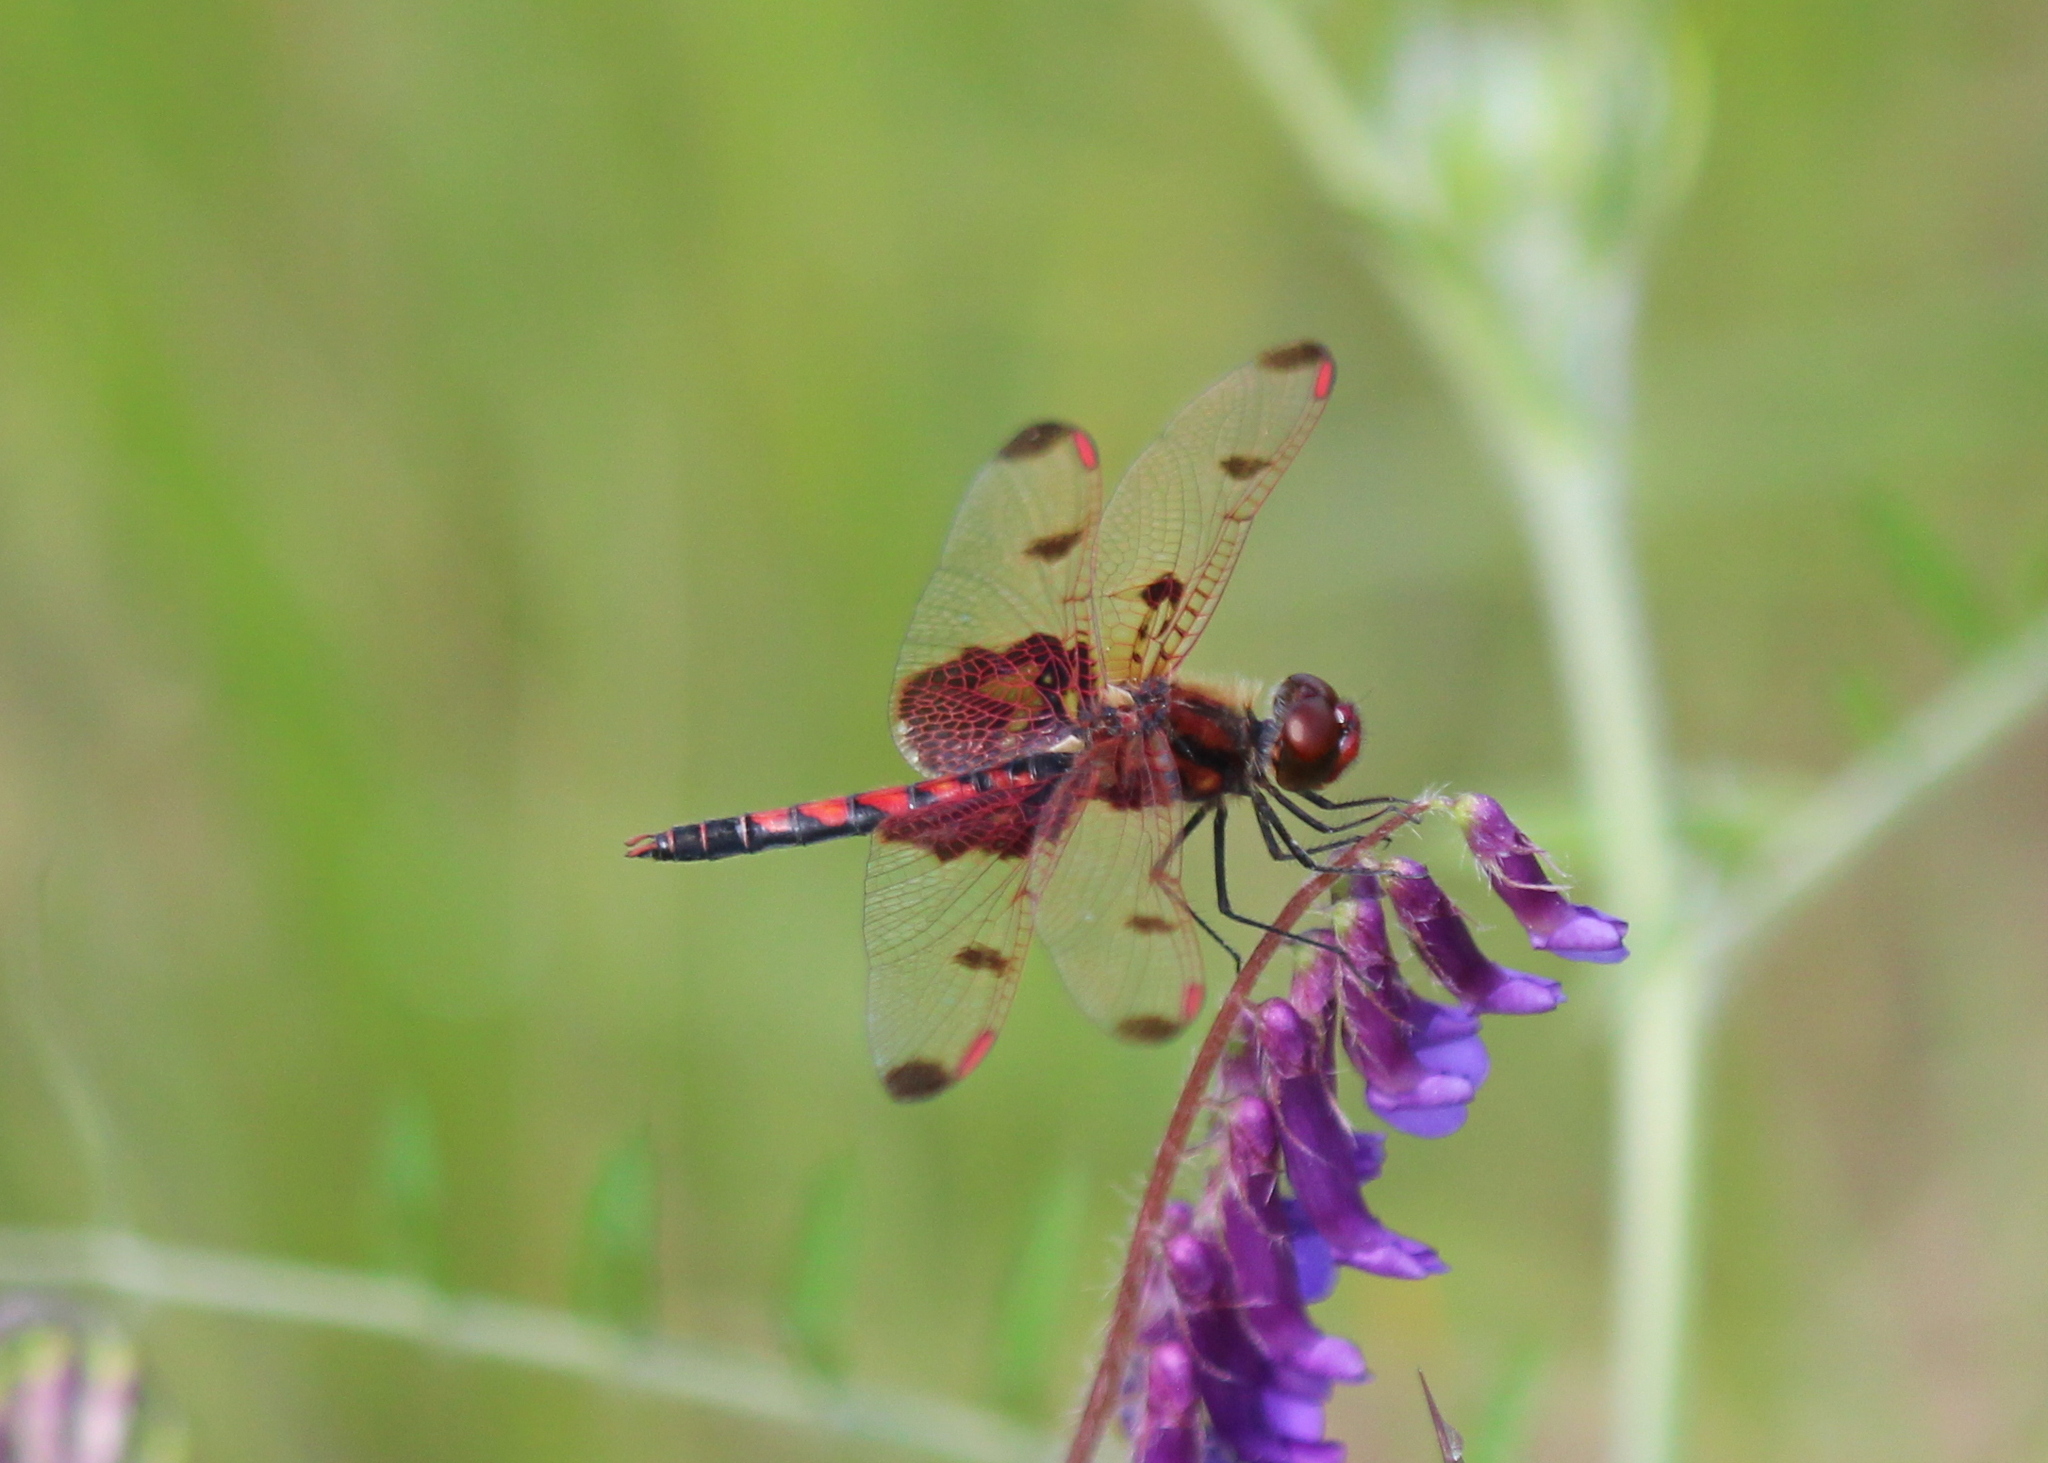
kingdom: Animalia
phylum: Arthropoda
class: Insecta
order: Odonata
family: Libellulidae
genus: Celithemis
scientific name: Celithemis elisa
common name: Calico pennant
